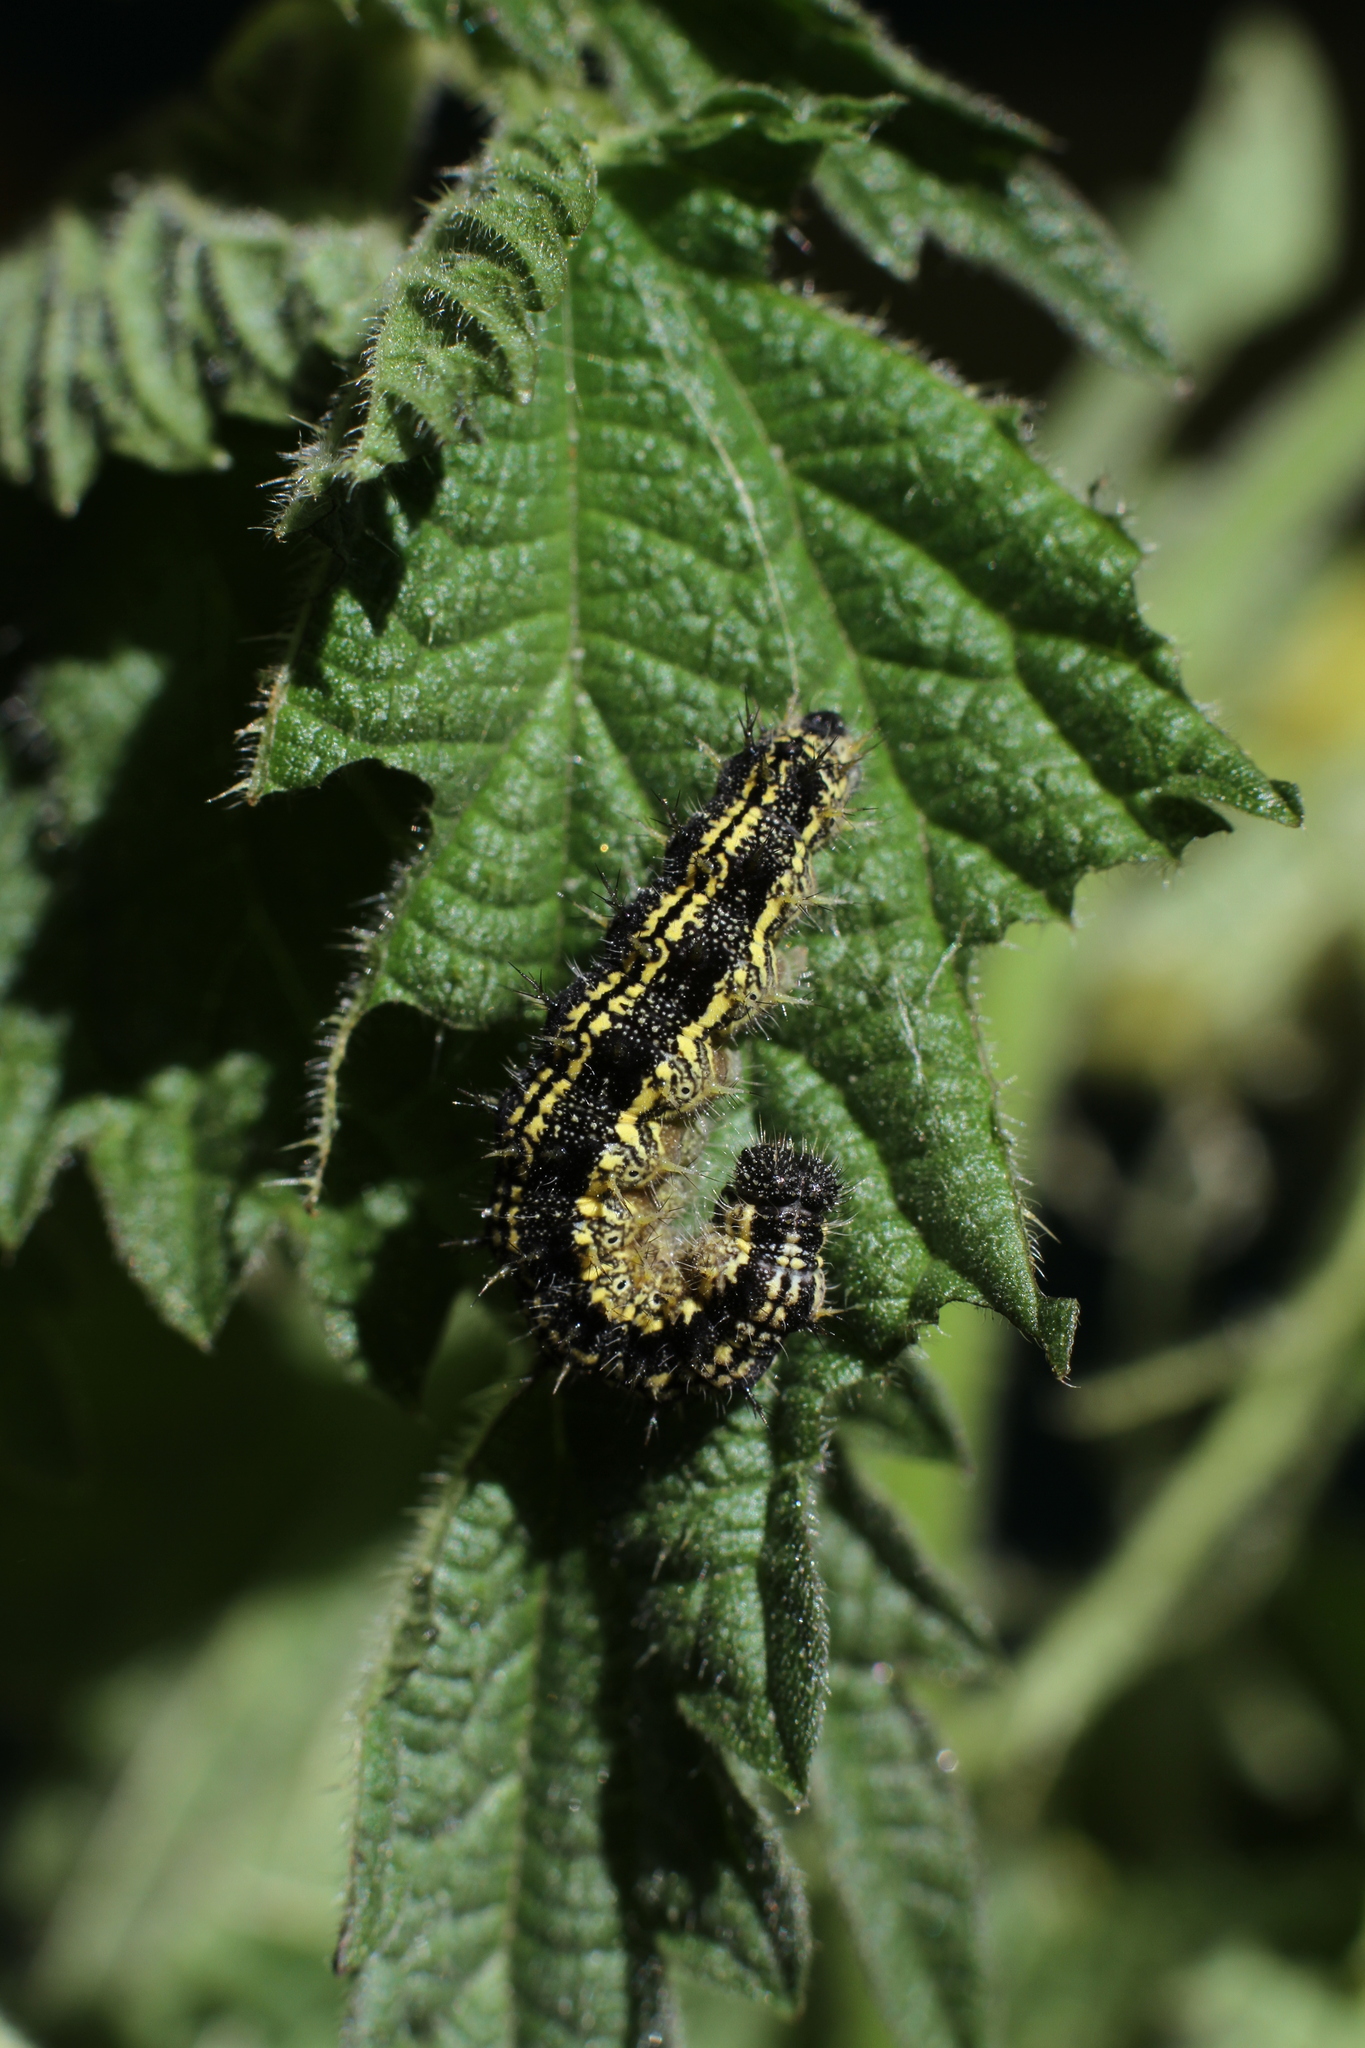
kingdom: Animalia
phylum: Arthropoda
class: Insecta
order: Lepidoptera
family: Nymphalidae
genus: Aglais
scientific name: Aglais urticae
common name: Small tortoiseshell
